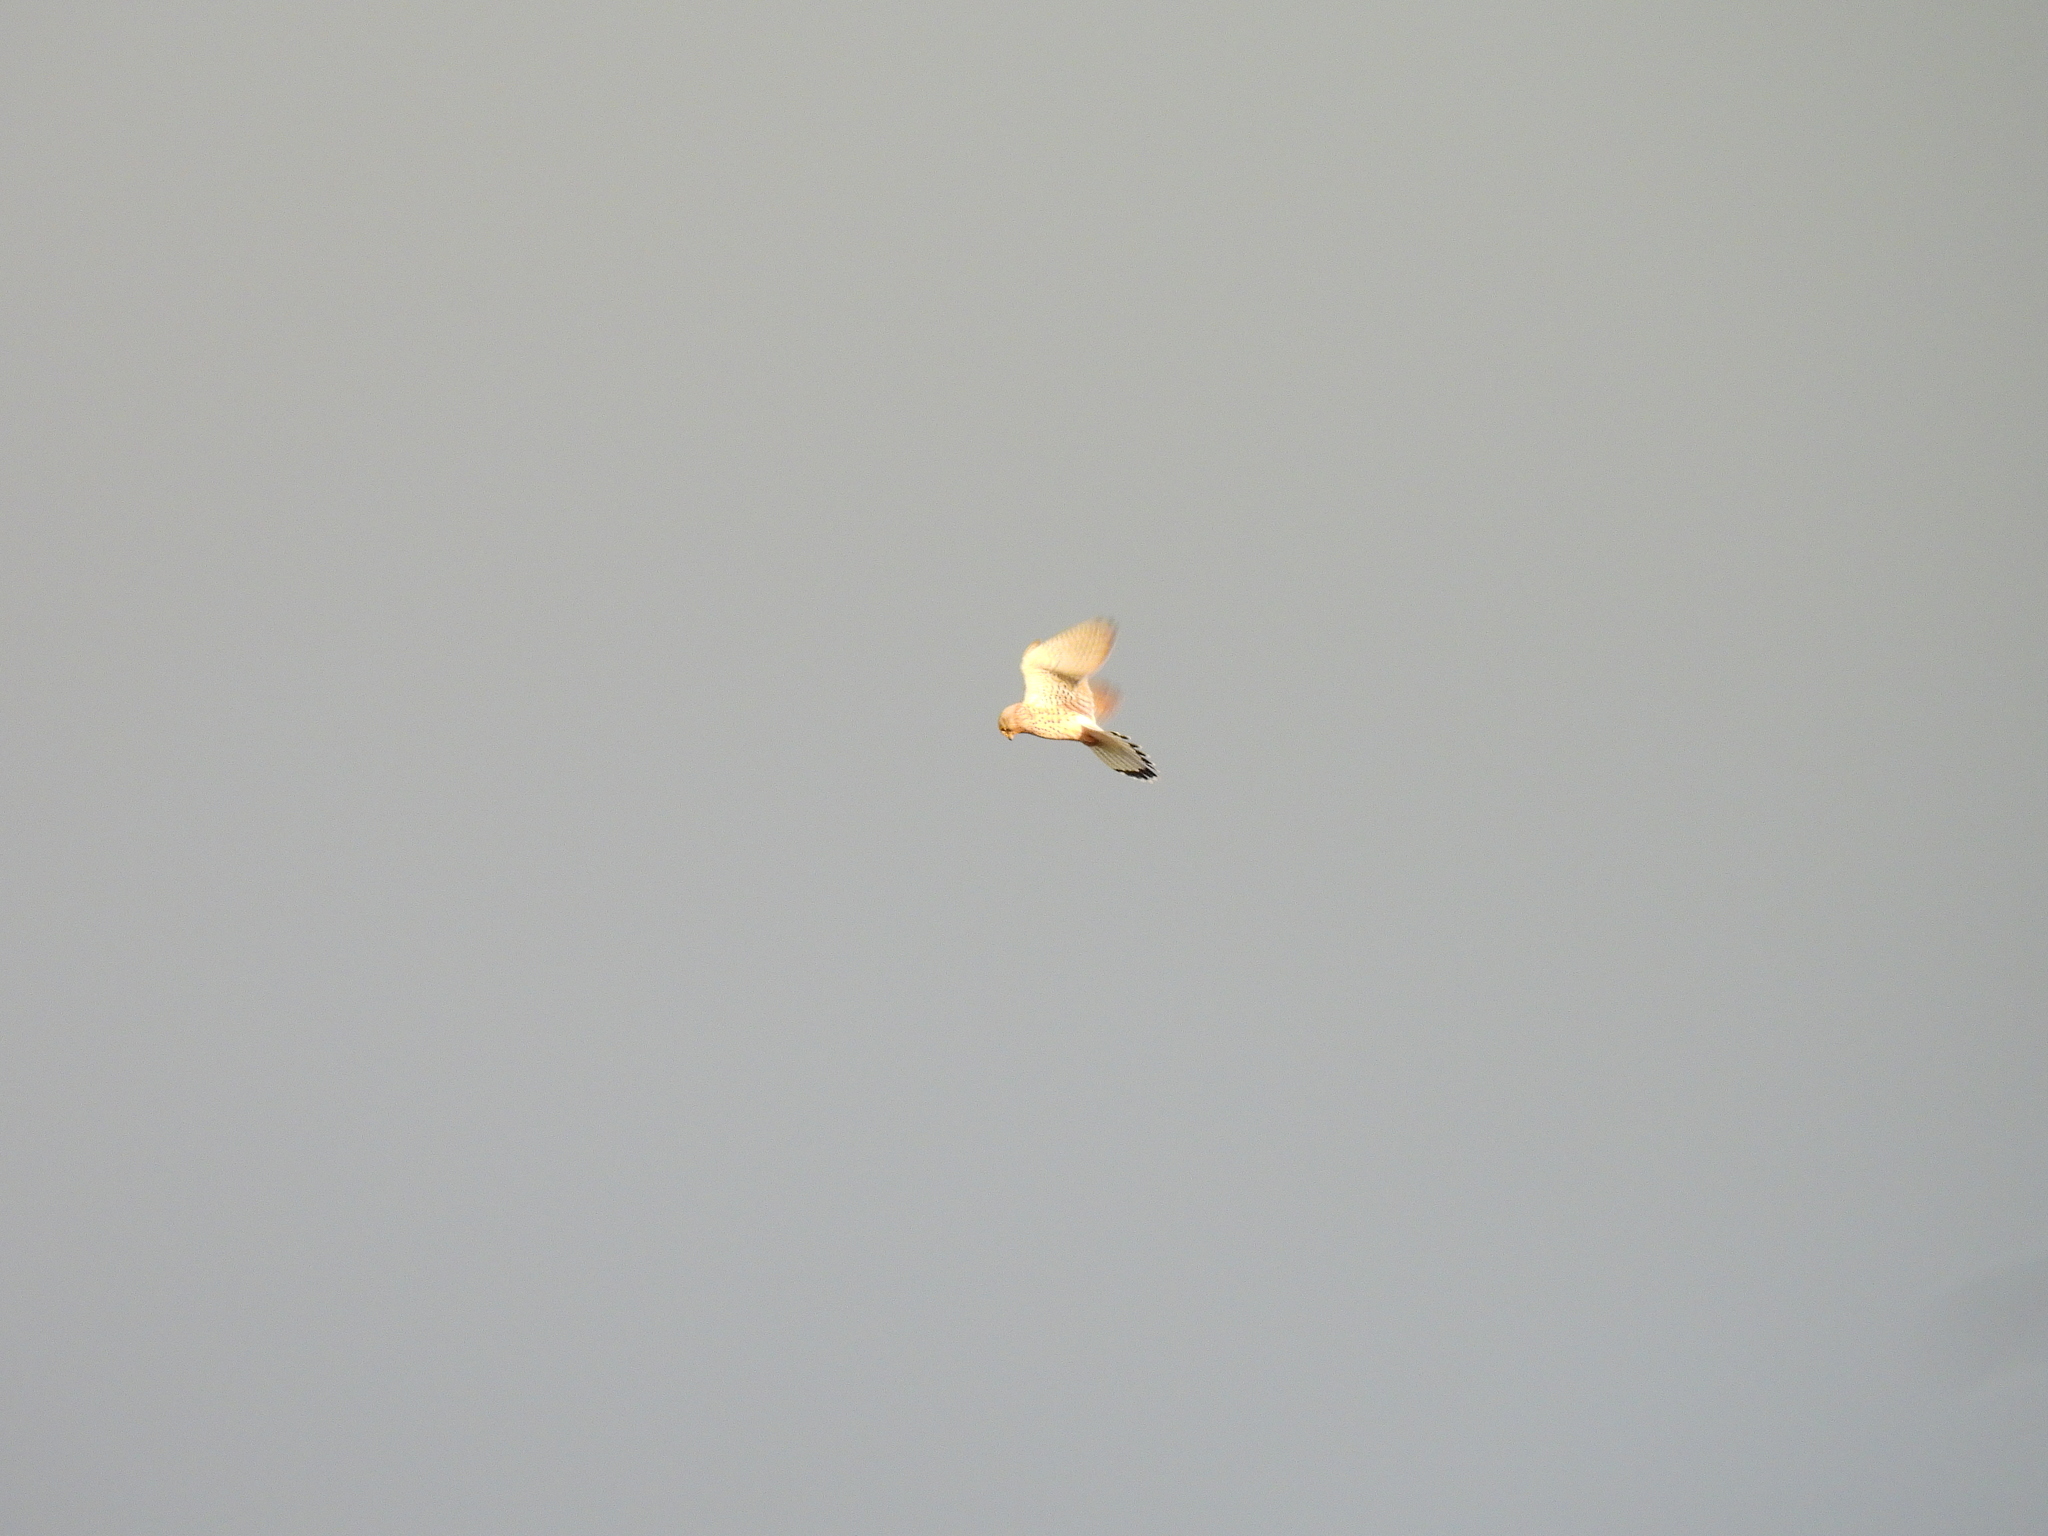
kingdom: Animalia
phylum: Chordata
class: Aves
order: Falconiformes
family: Falconidae
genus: Falco
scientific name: Falco tinnunculus
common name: Common kestrel
